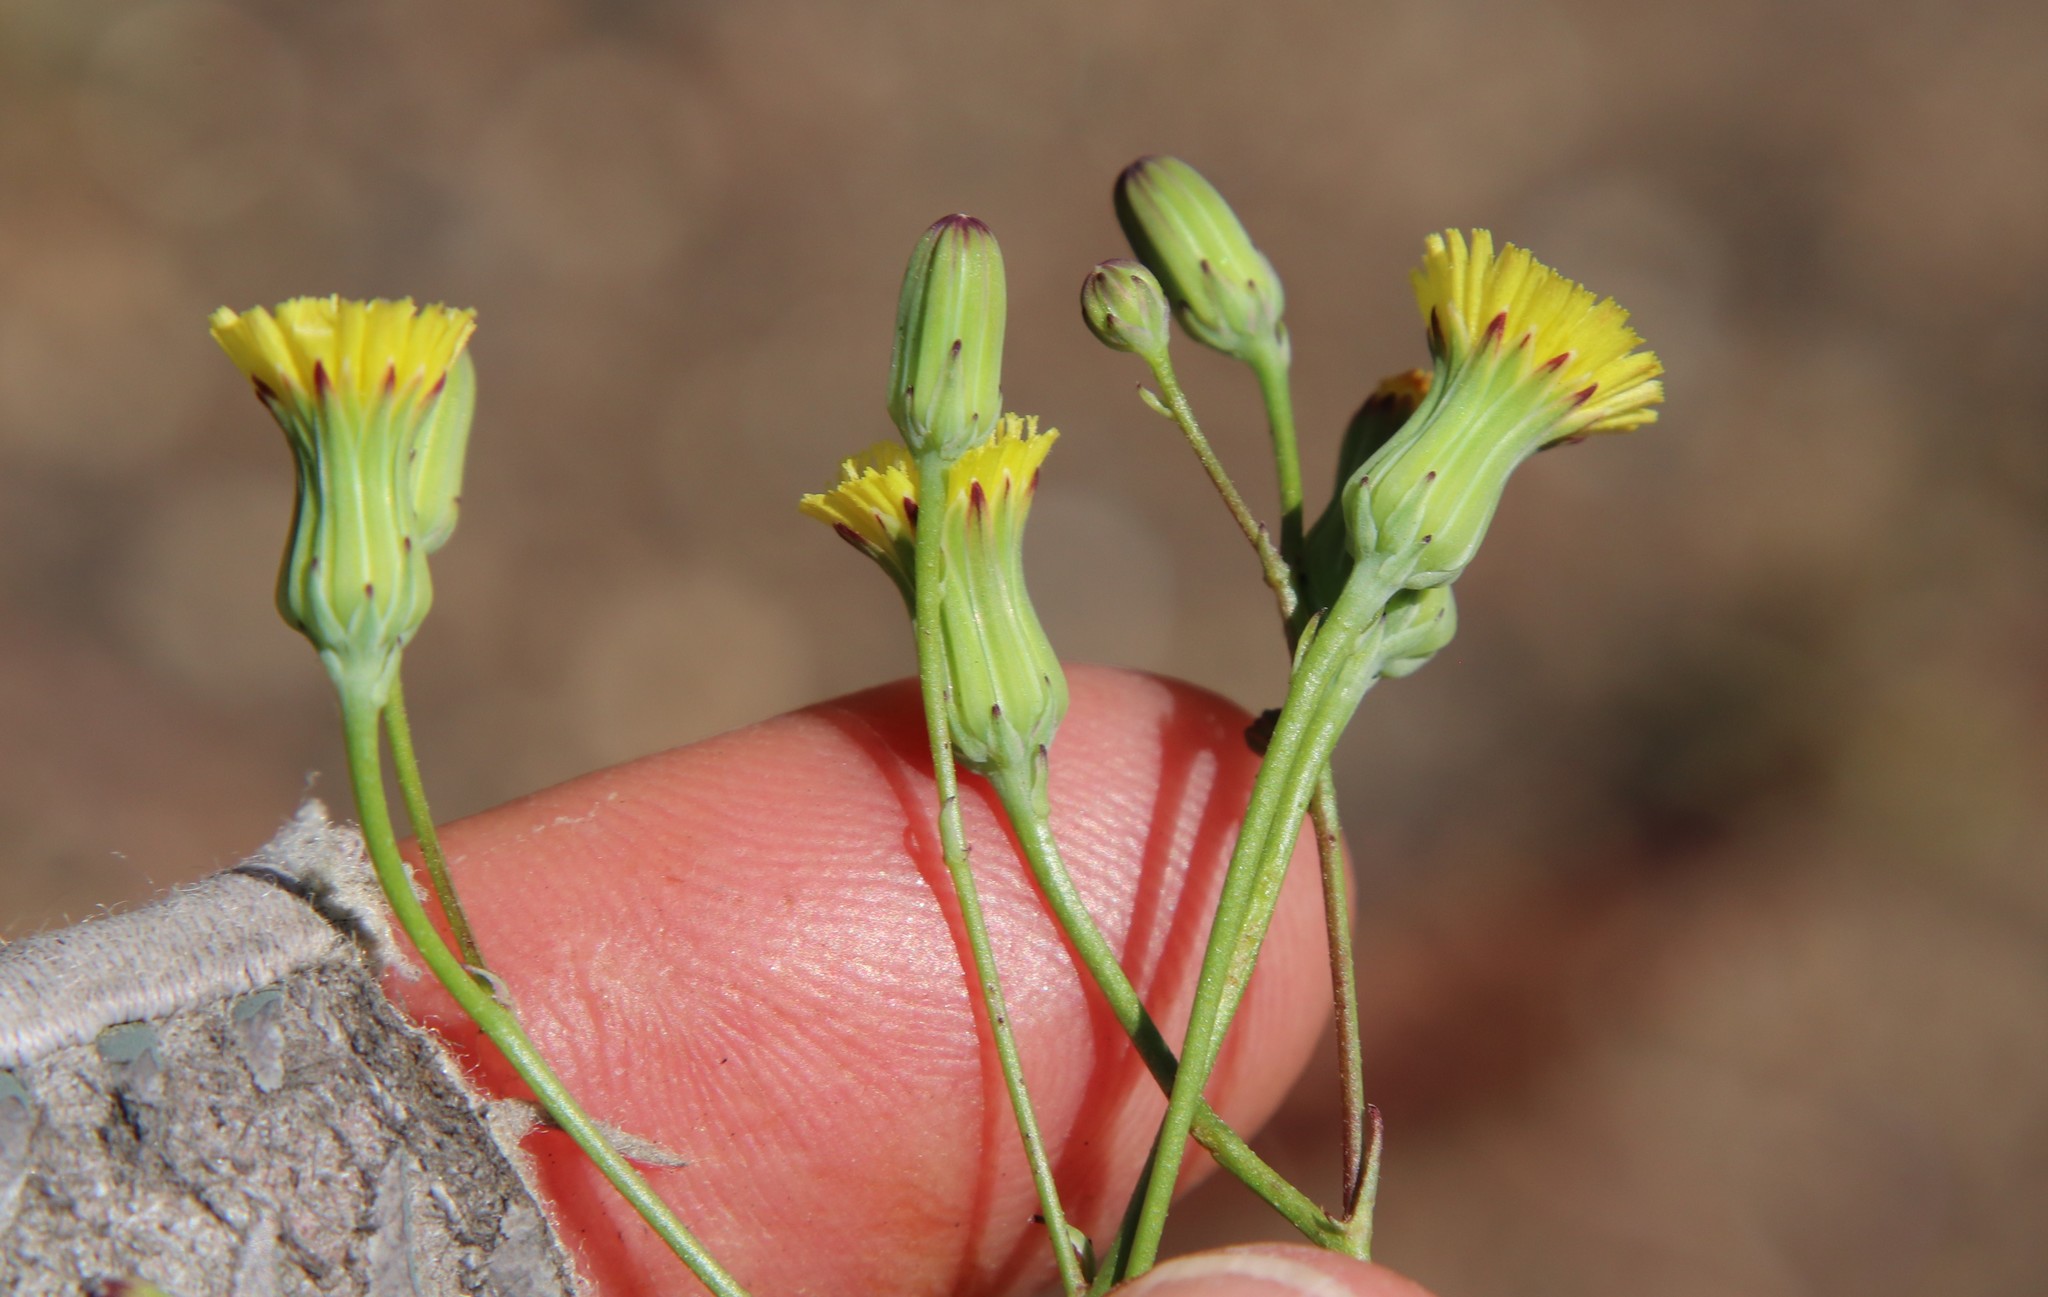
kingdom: Plantae
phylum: Tracheophyta
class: Magnoliopsida
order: Asterales
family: Asteraceae
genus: Malacothrix
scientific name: Malacothrix clevelandii
